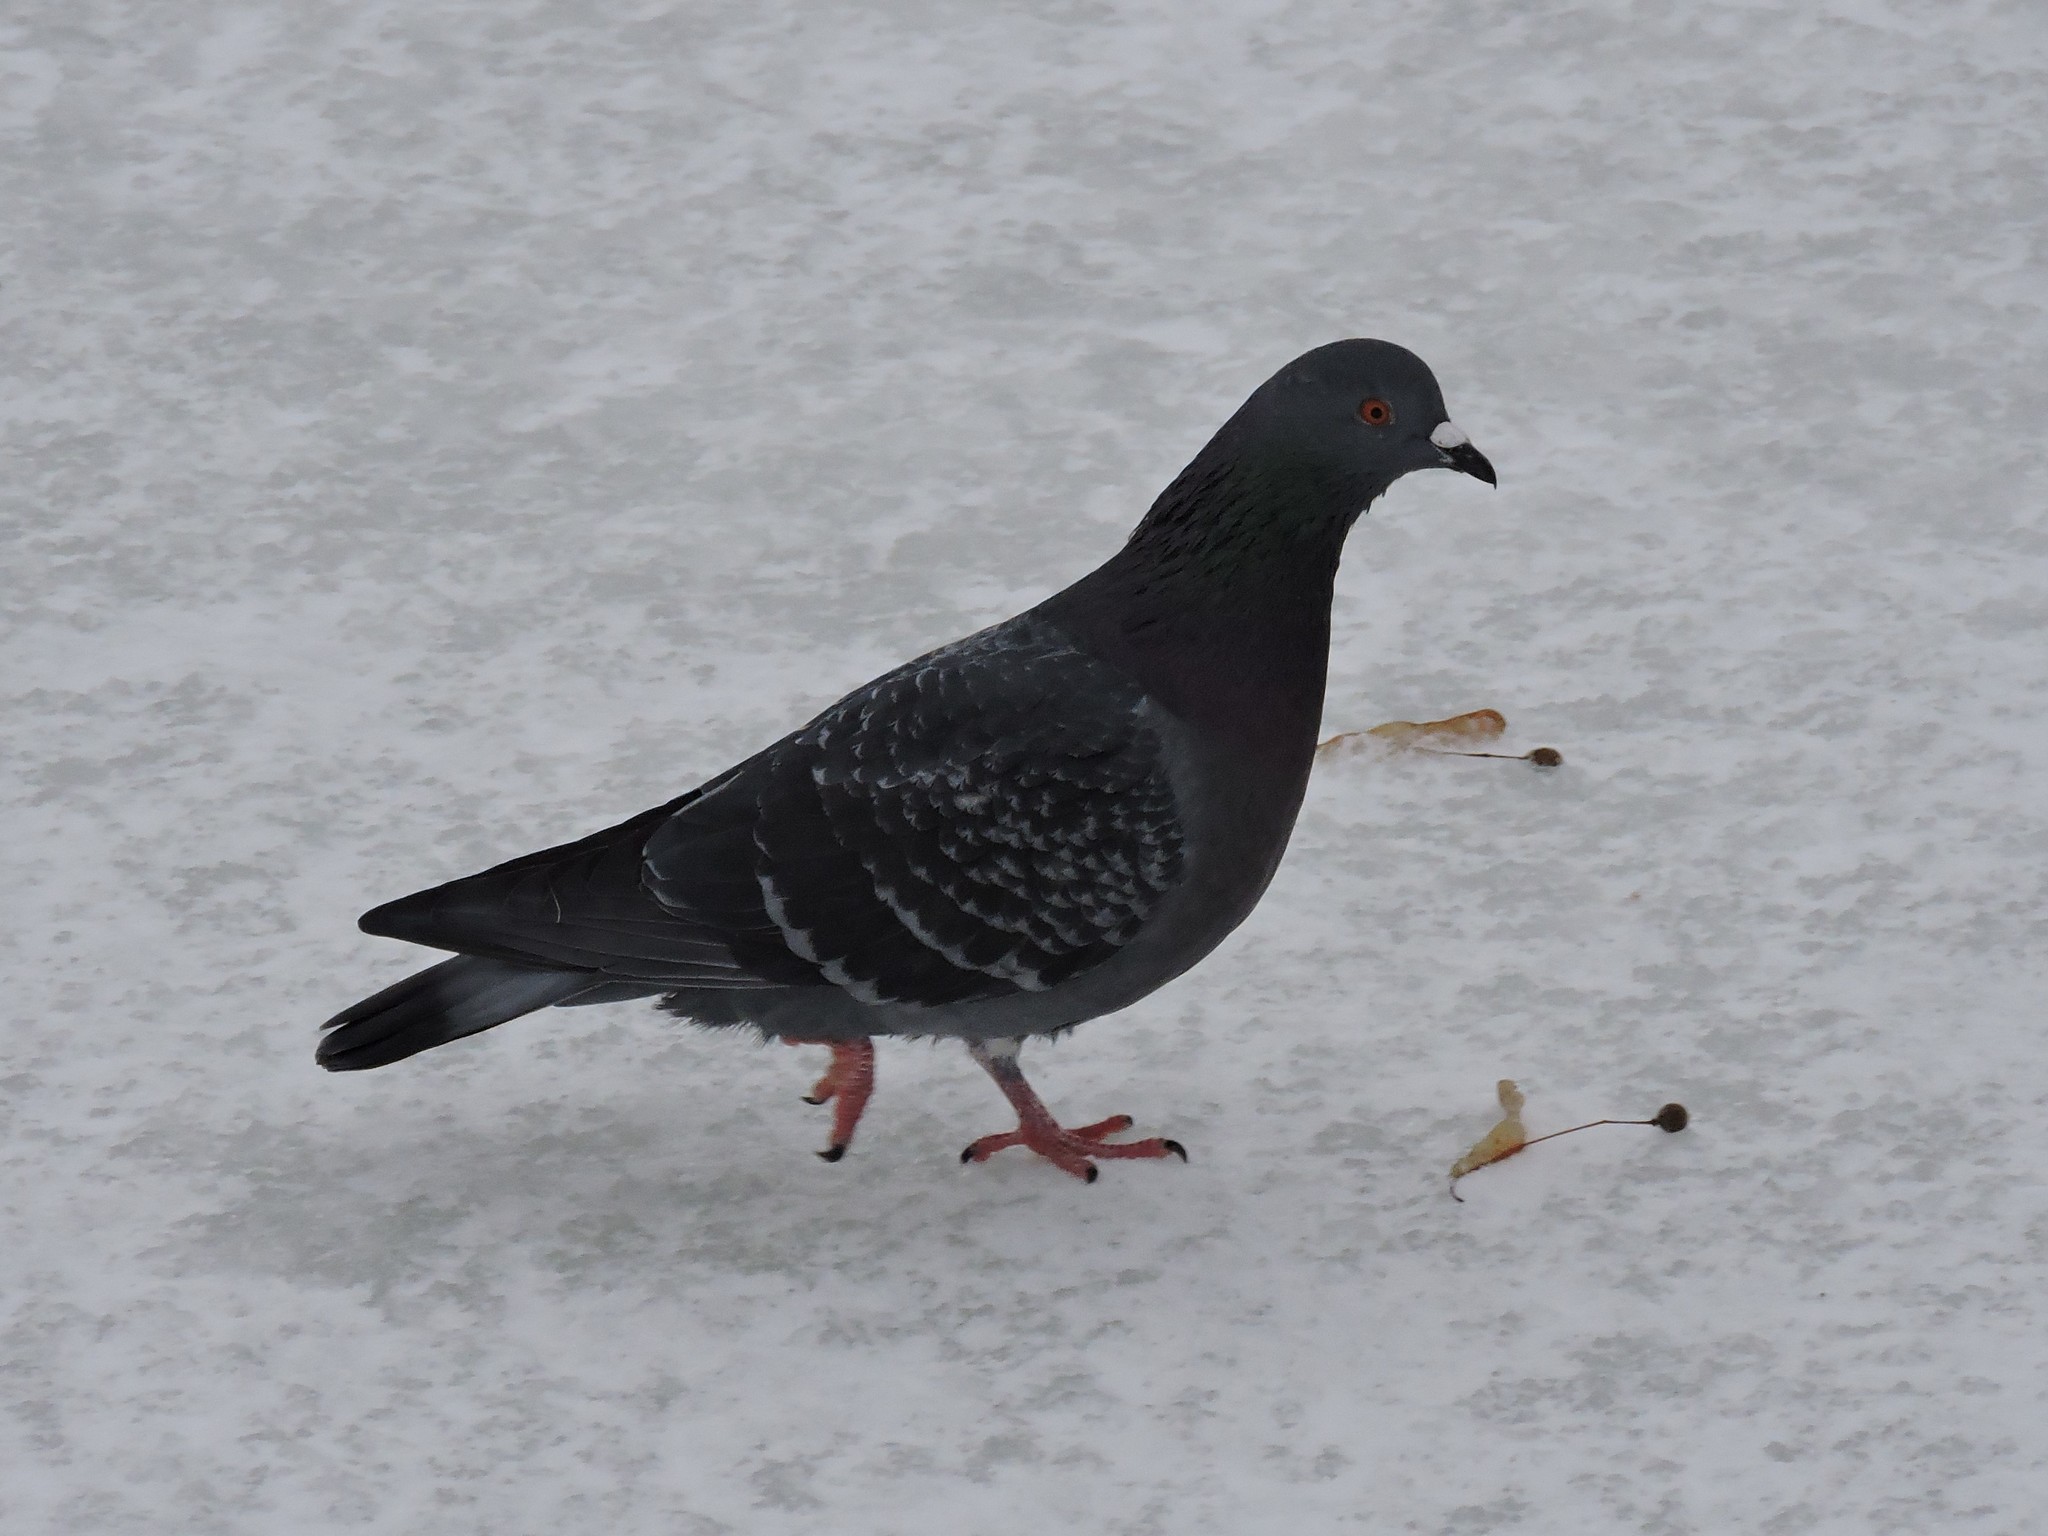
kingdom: Animalia
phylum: Chordata
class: Aves
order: Columbiformes
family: Columbidae
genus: Columba
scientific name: Columba livia
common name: Rock pigeon
